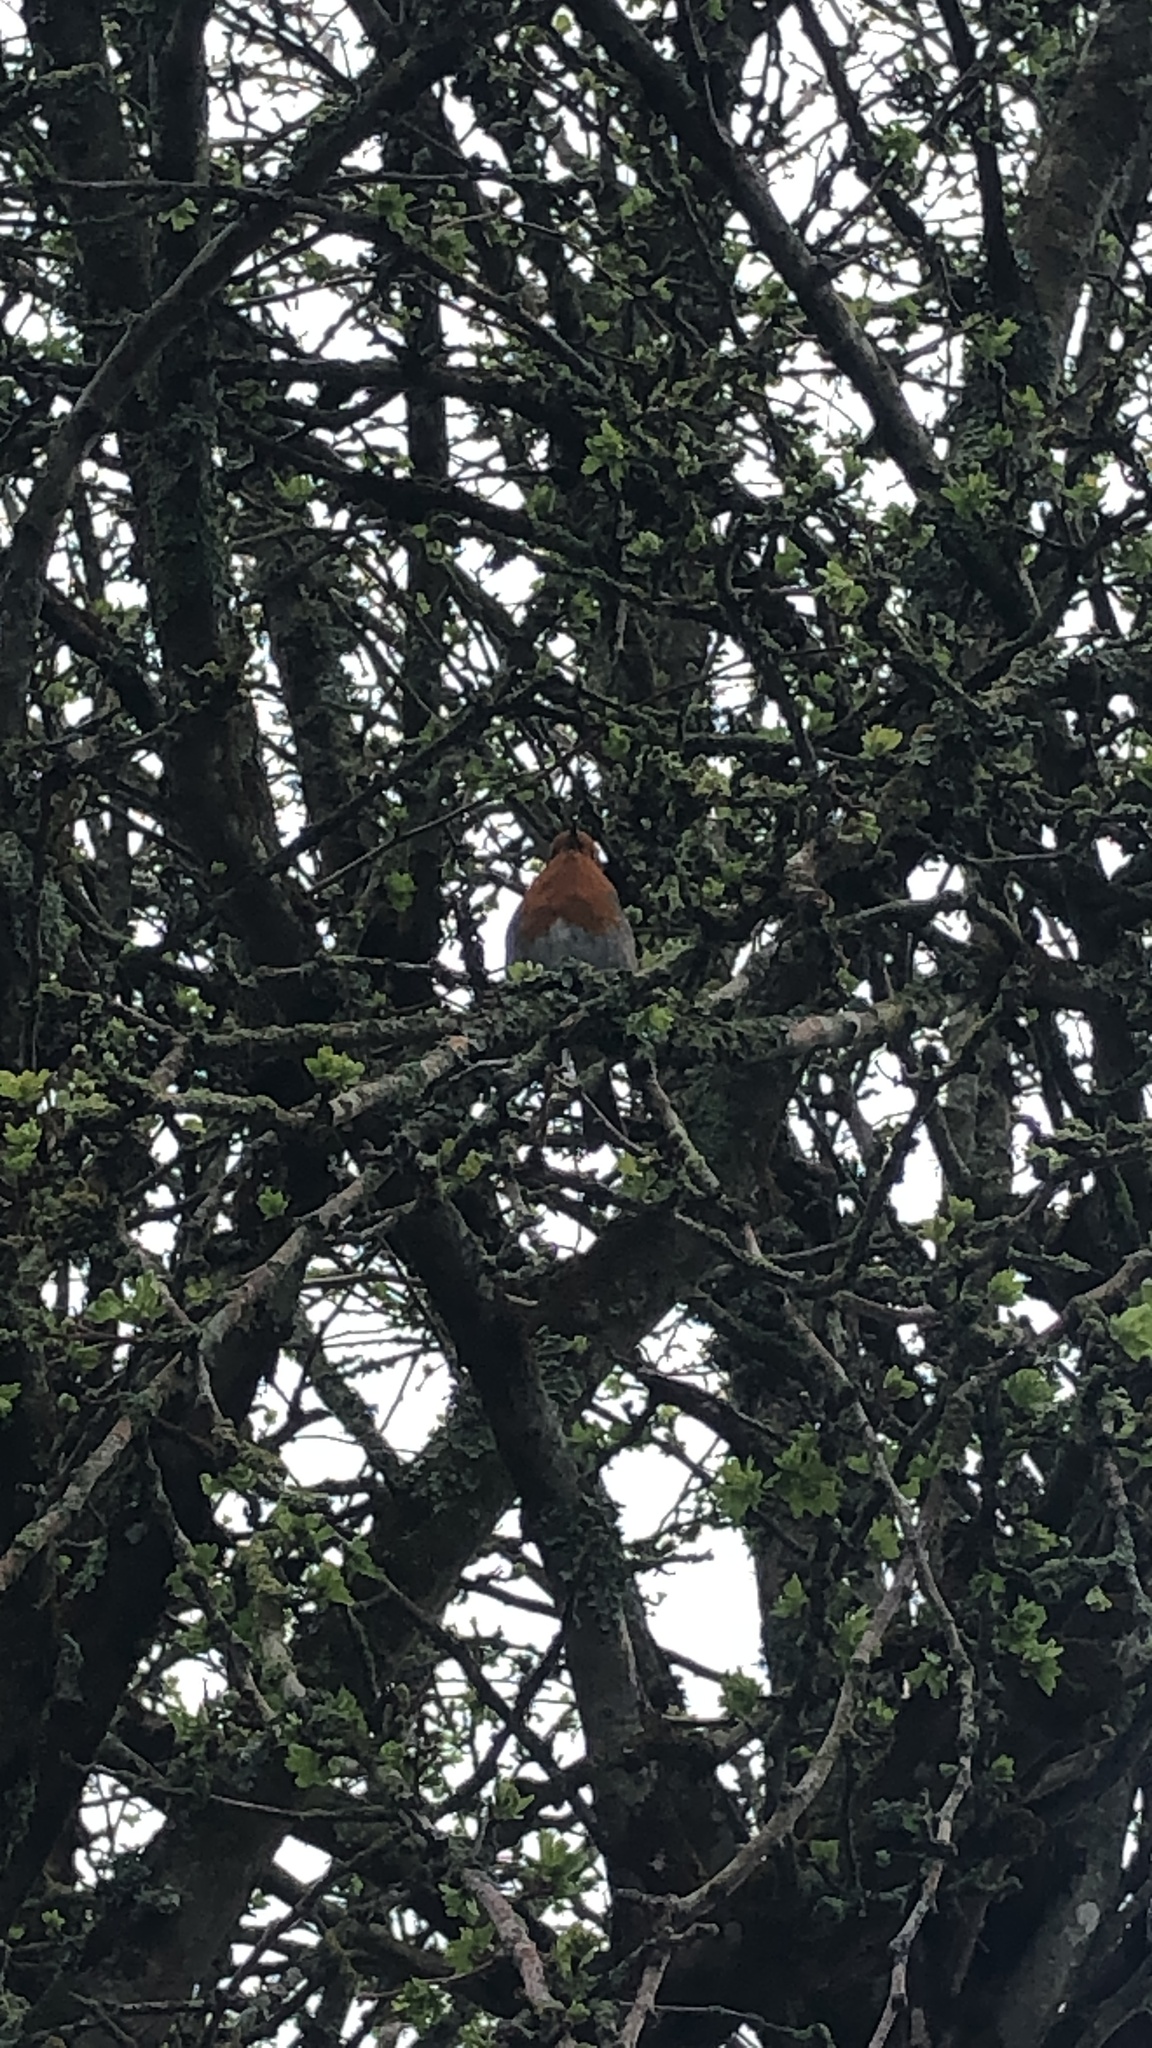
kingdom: Animalia
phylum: Chordata
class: Aves
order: Passeriformes
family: Muscicapidae
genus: Erithacus
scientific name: Erithacus rubecula
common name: European robin
